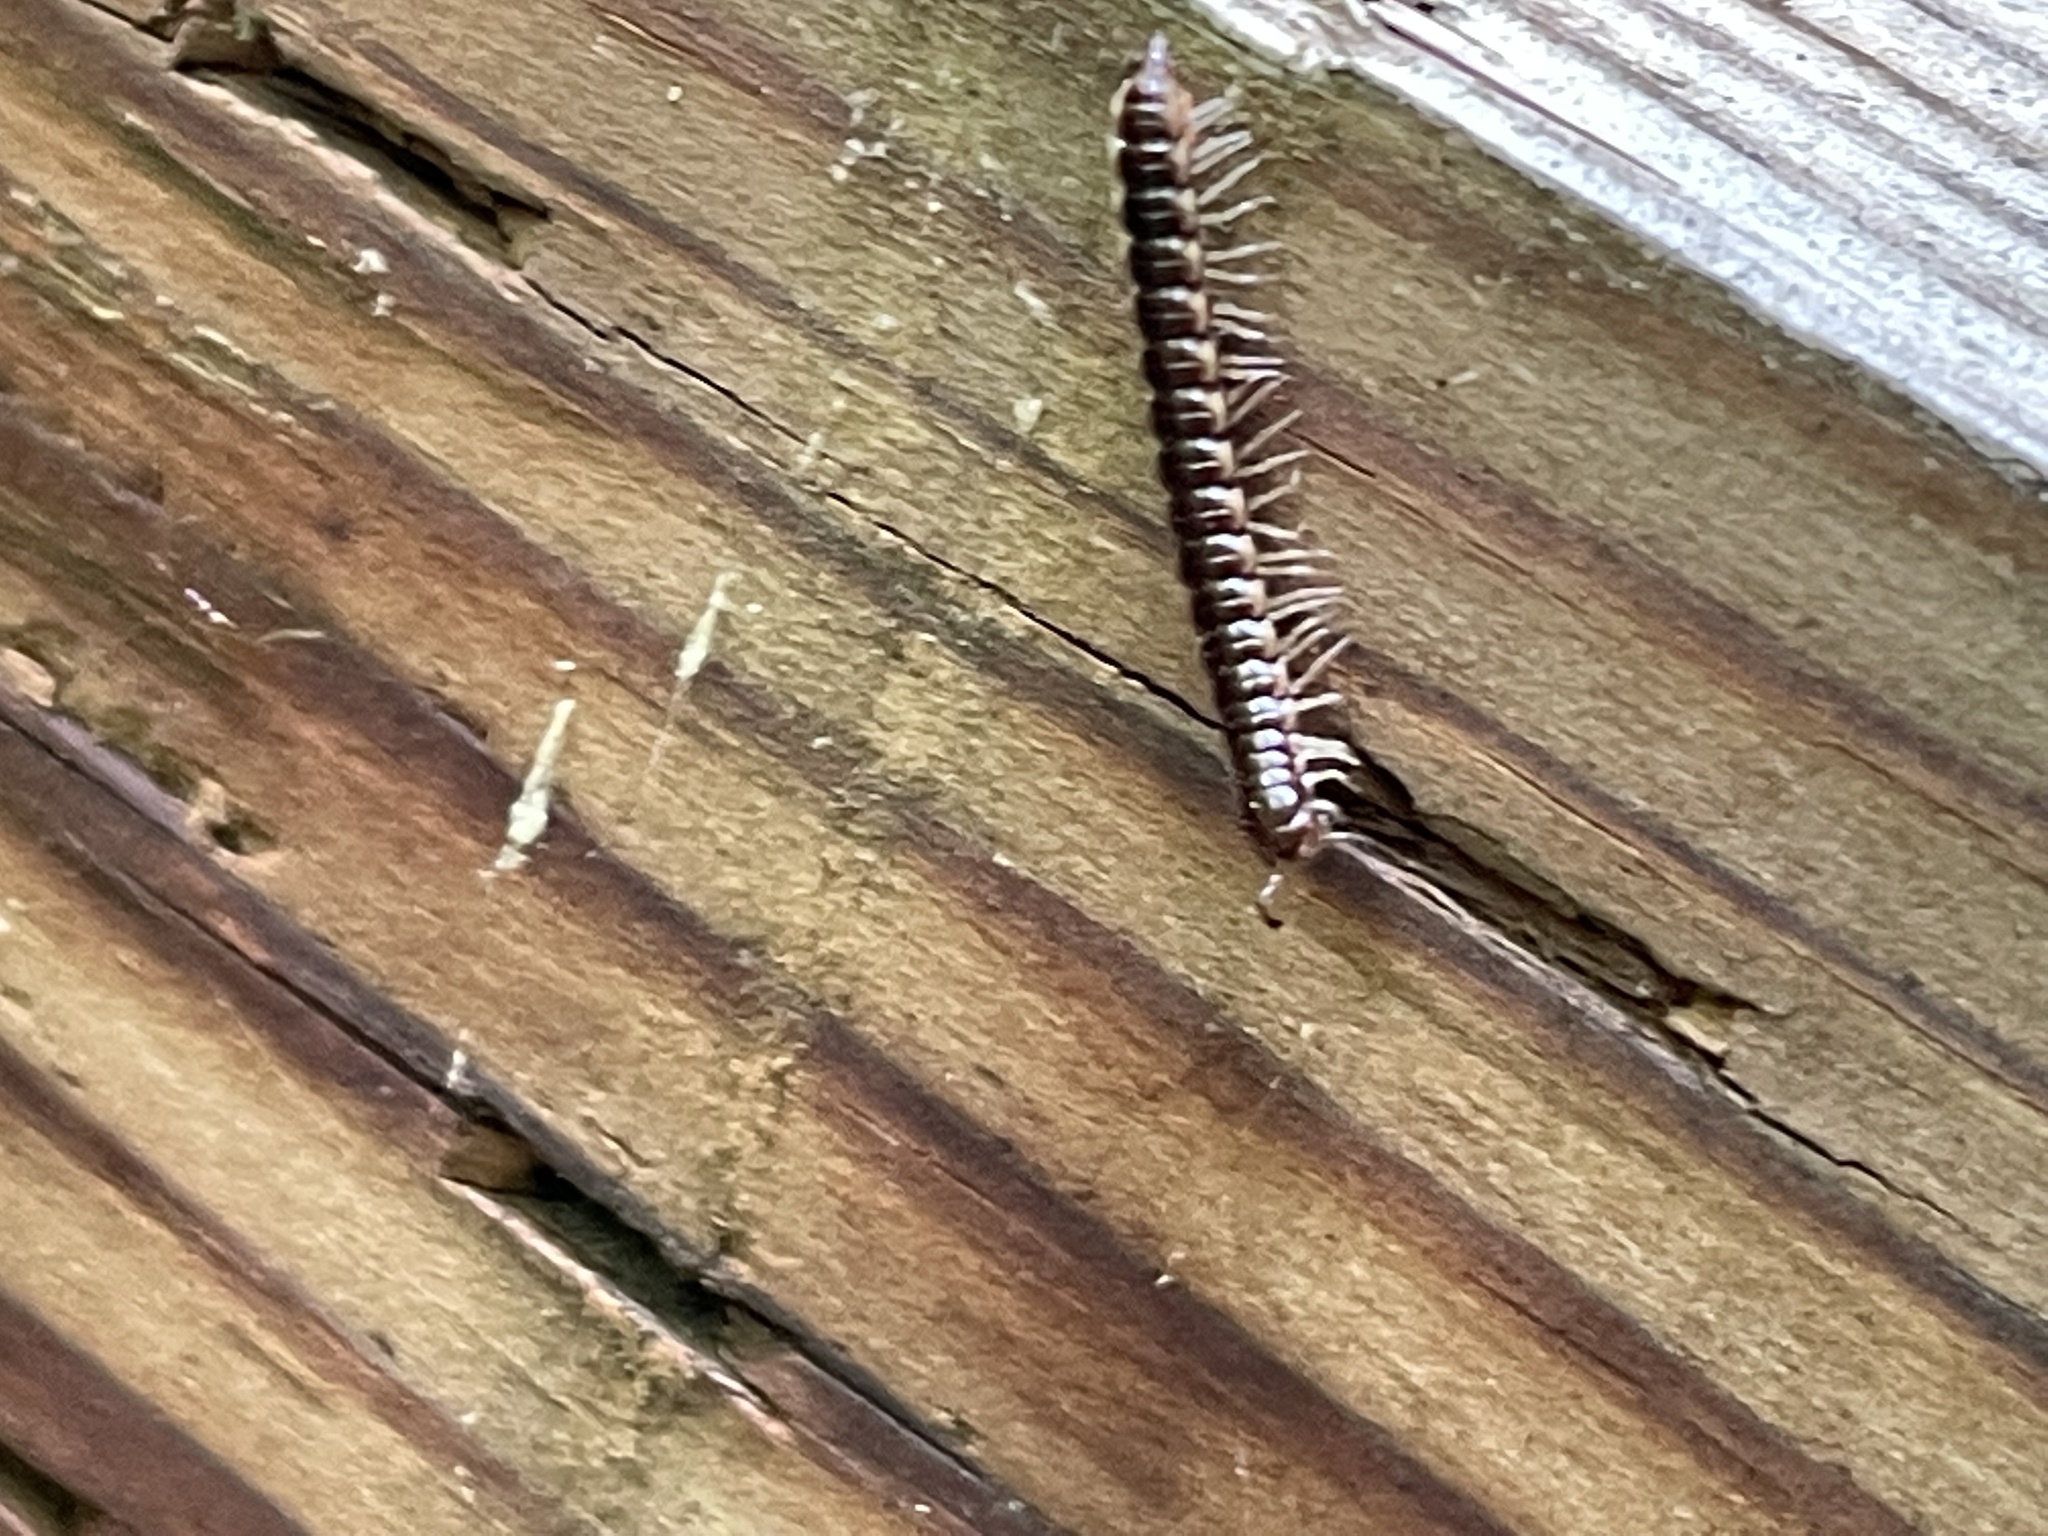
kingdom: Animalia
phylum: Arthropoda
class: Diplopoda
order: Polydesmida
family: Paradoxosomatidae
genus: Oxidus
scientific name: Oxidus gracilis
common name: Greenhouse millipede
